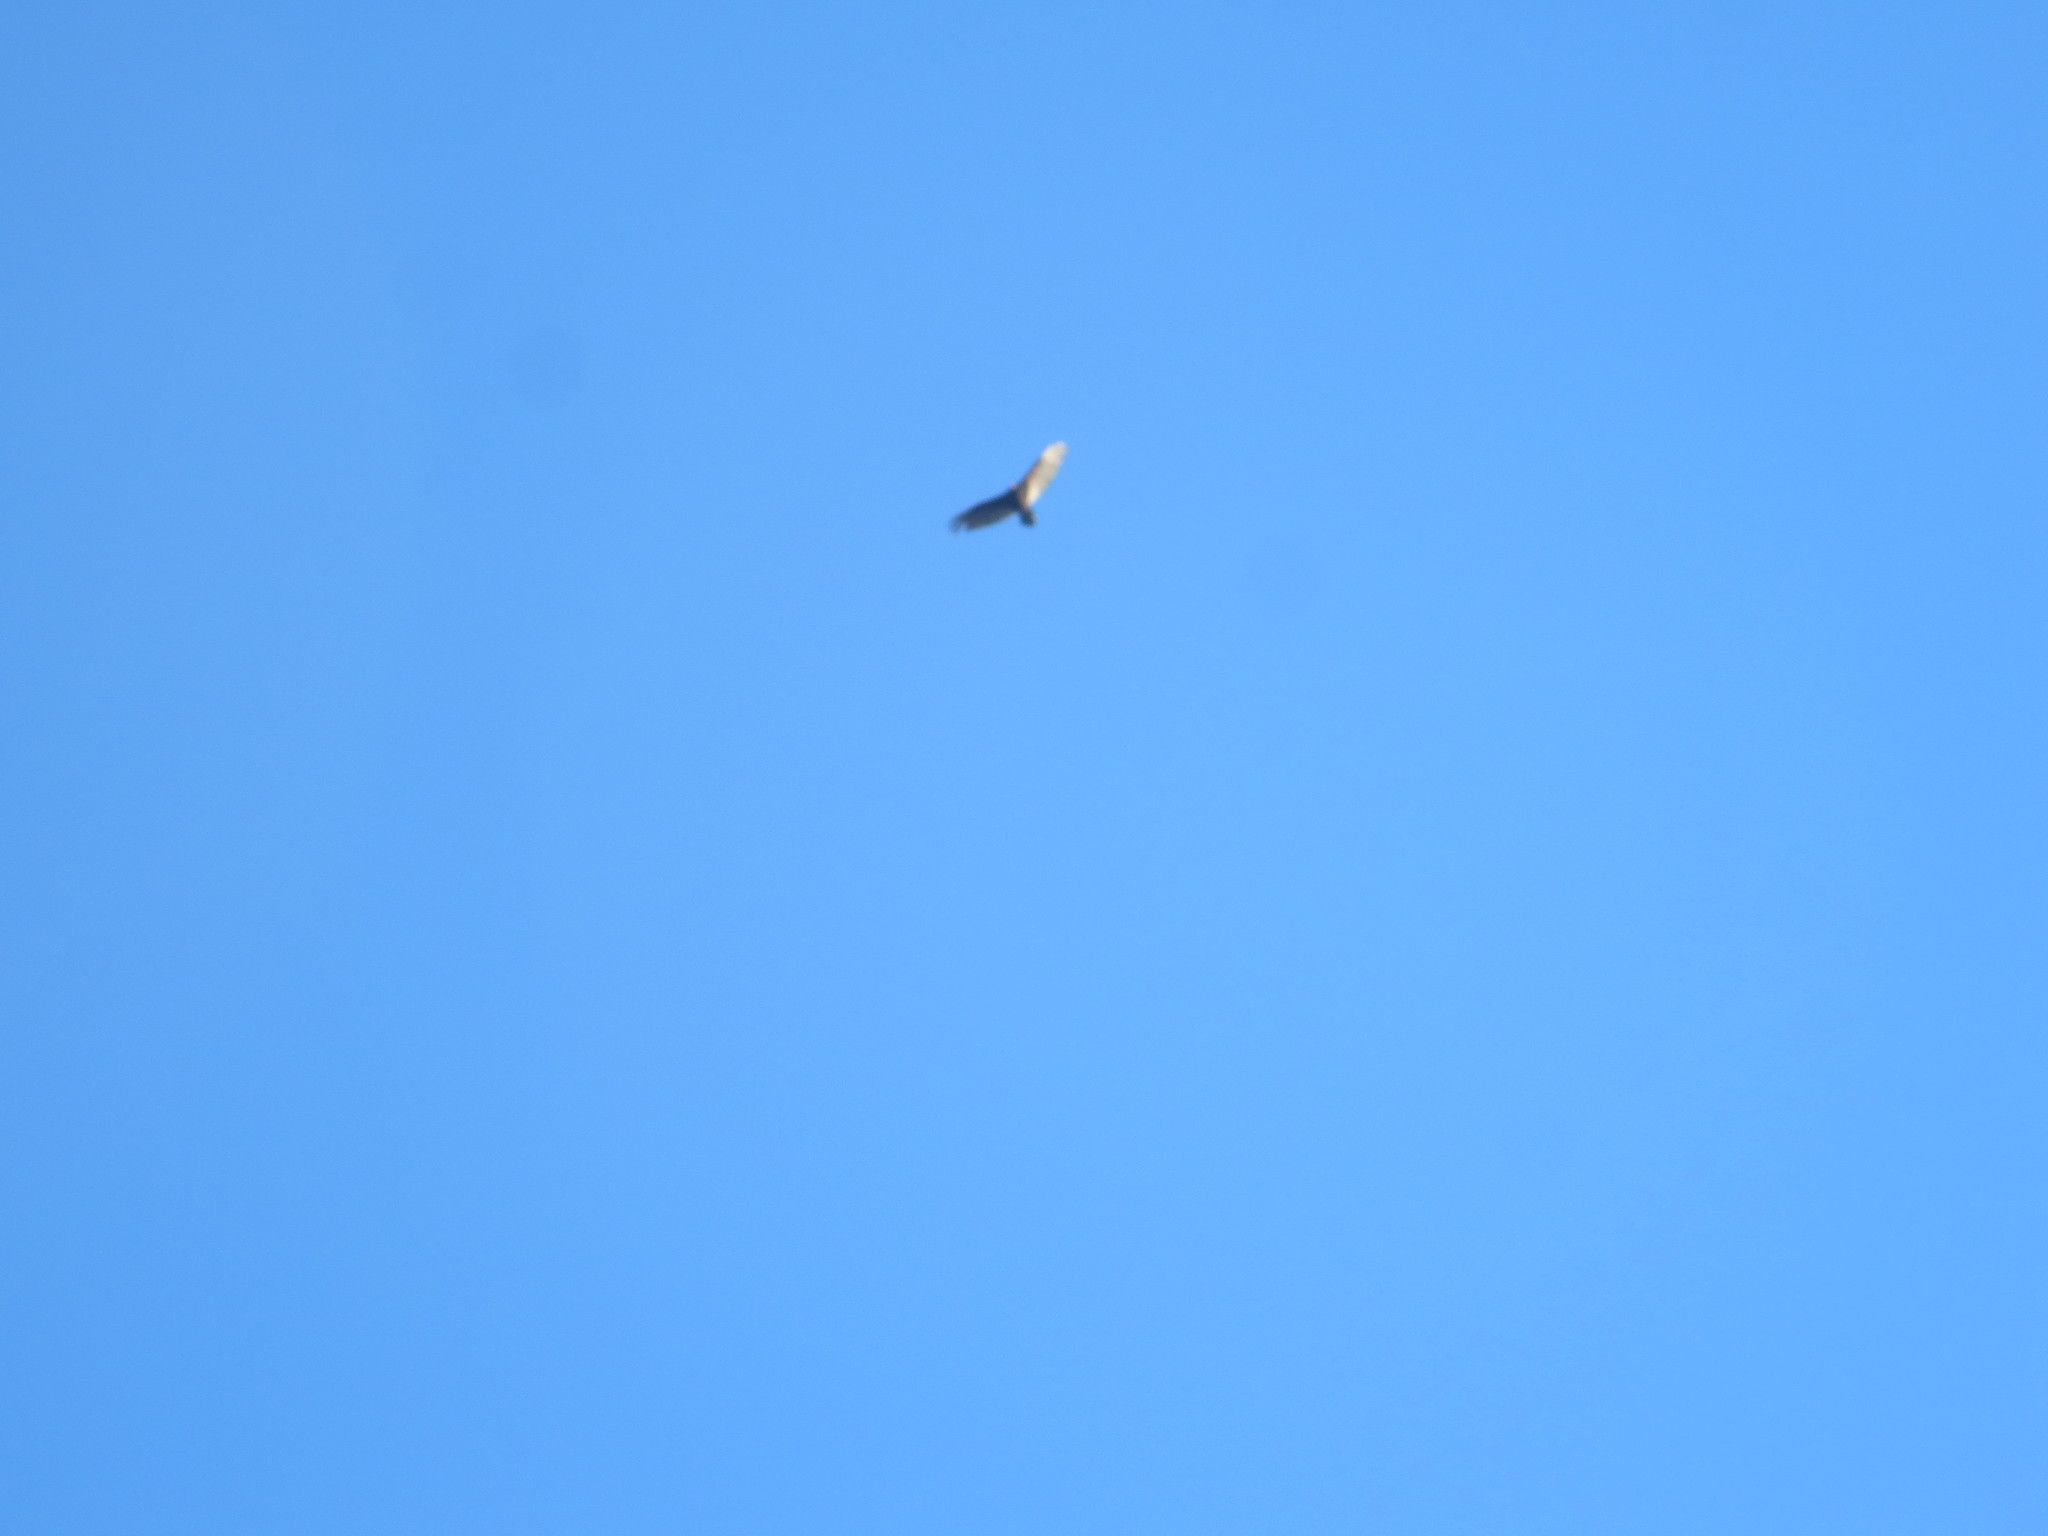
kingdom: Animalia
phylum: Chordata
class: Aves
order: Accipitriformes
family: Cathartidae
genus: Cathartes
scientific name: Cathartes aura
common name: Turkey vulture
